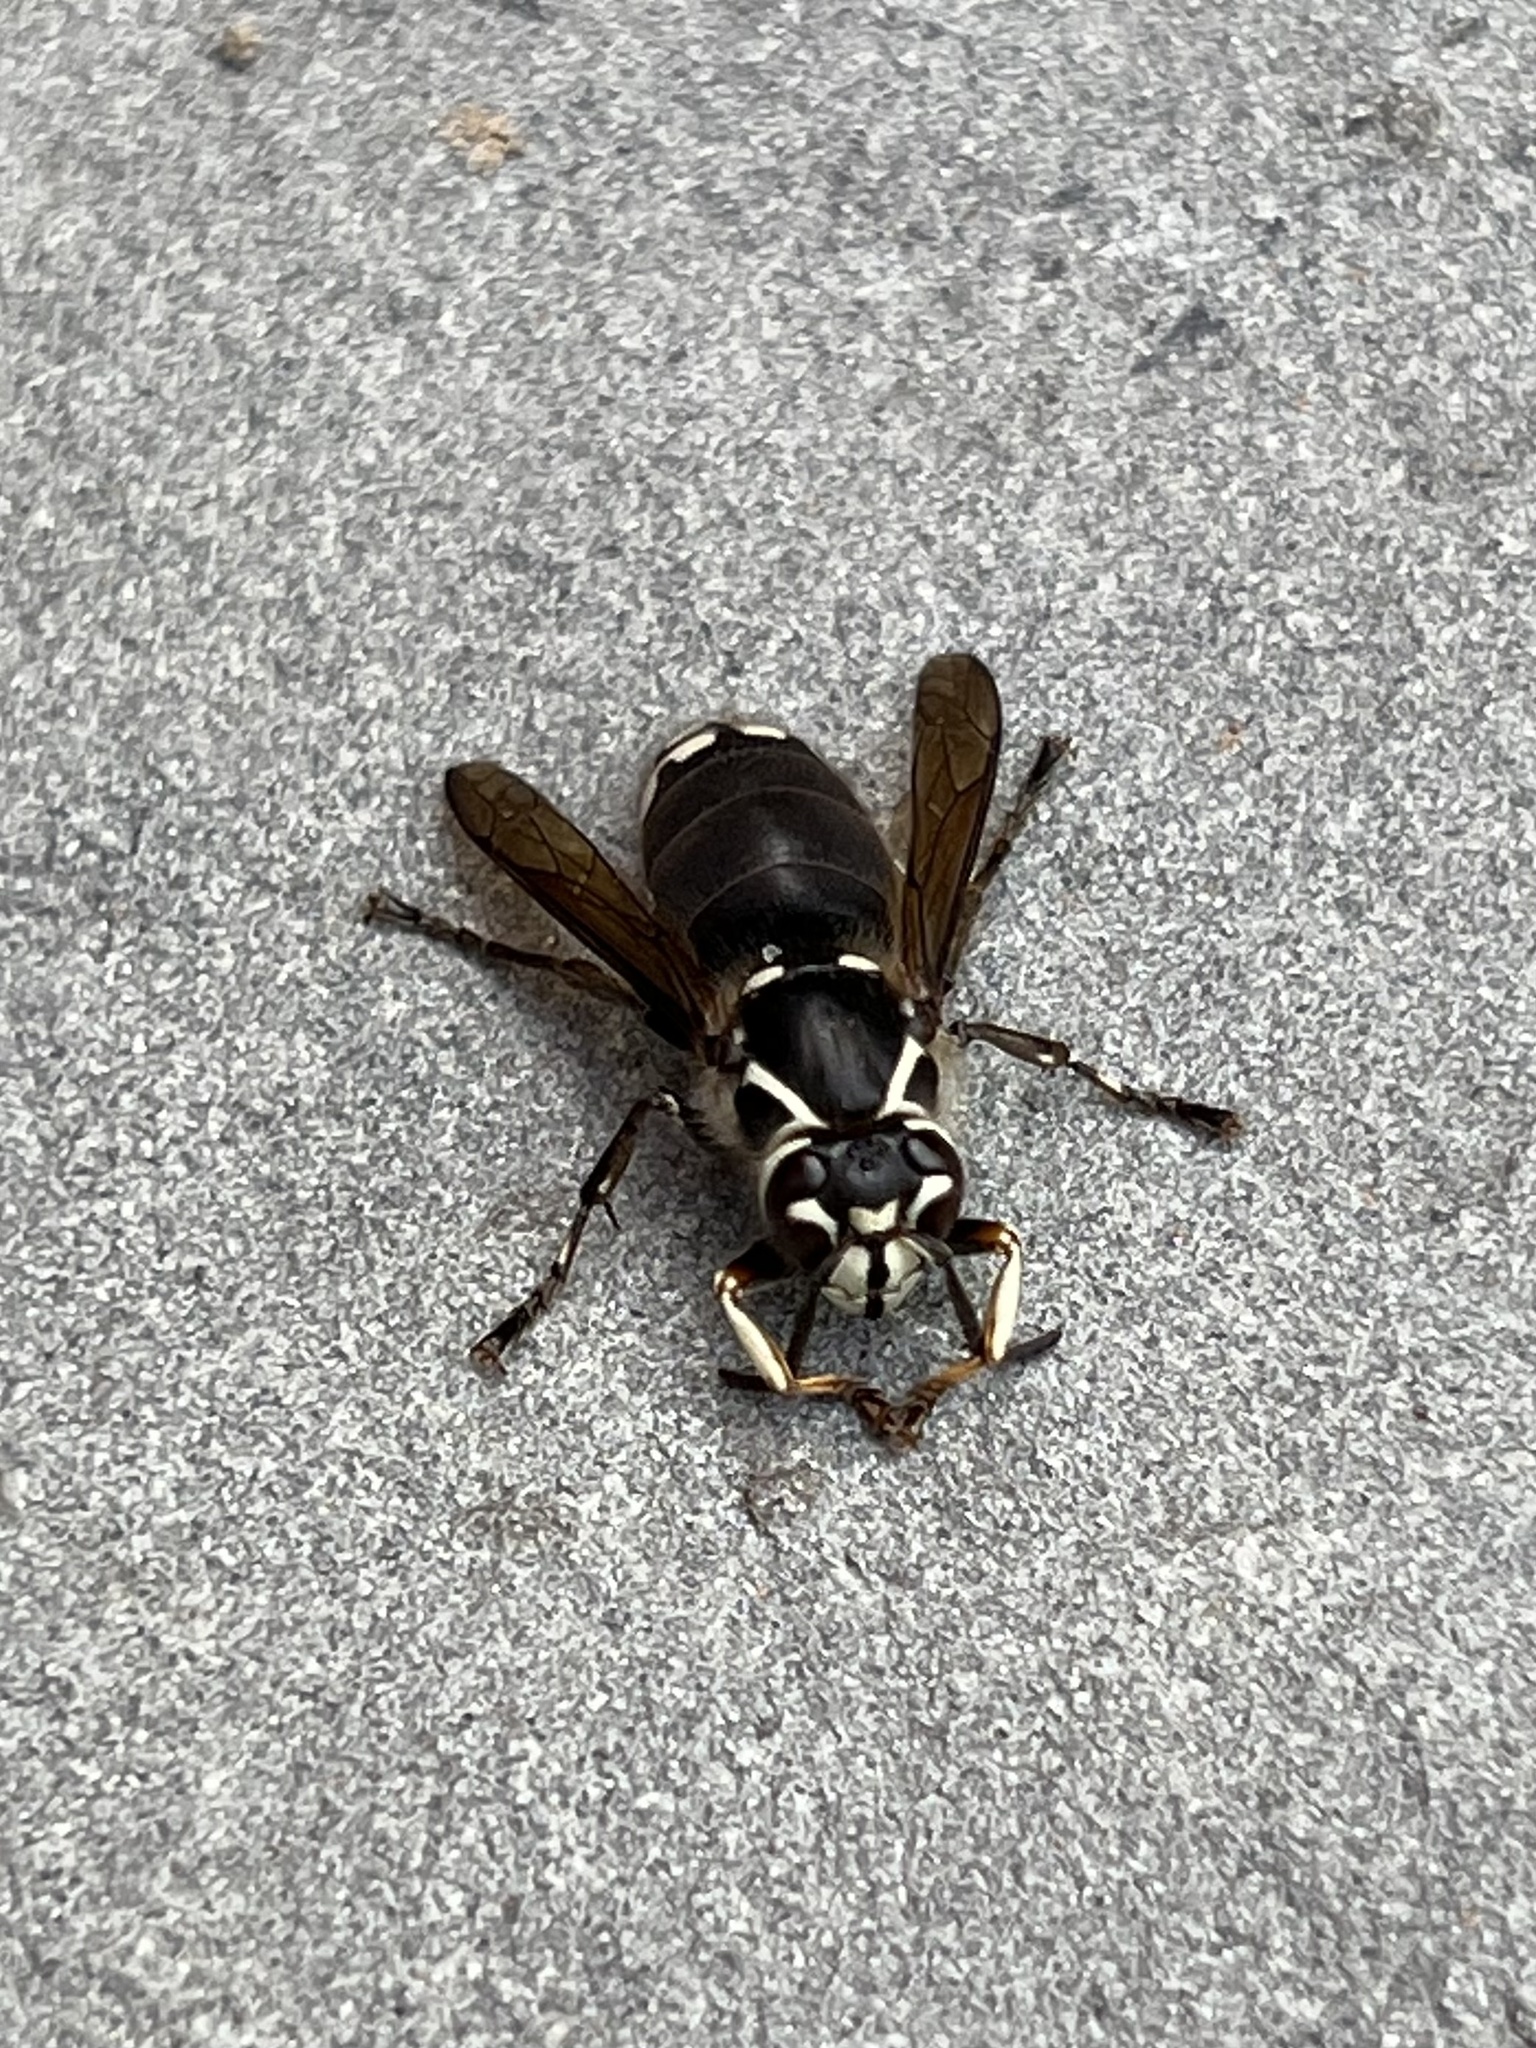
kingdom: Animalia
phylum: Arthropoda
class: Insecta
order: Hymenoptera
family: Vespidae
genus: Dolichovespula
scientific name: Dolichovespula maculata
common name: Bald-faced hornet
